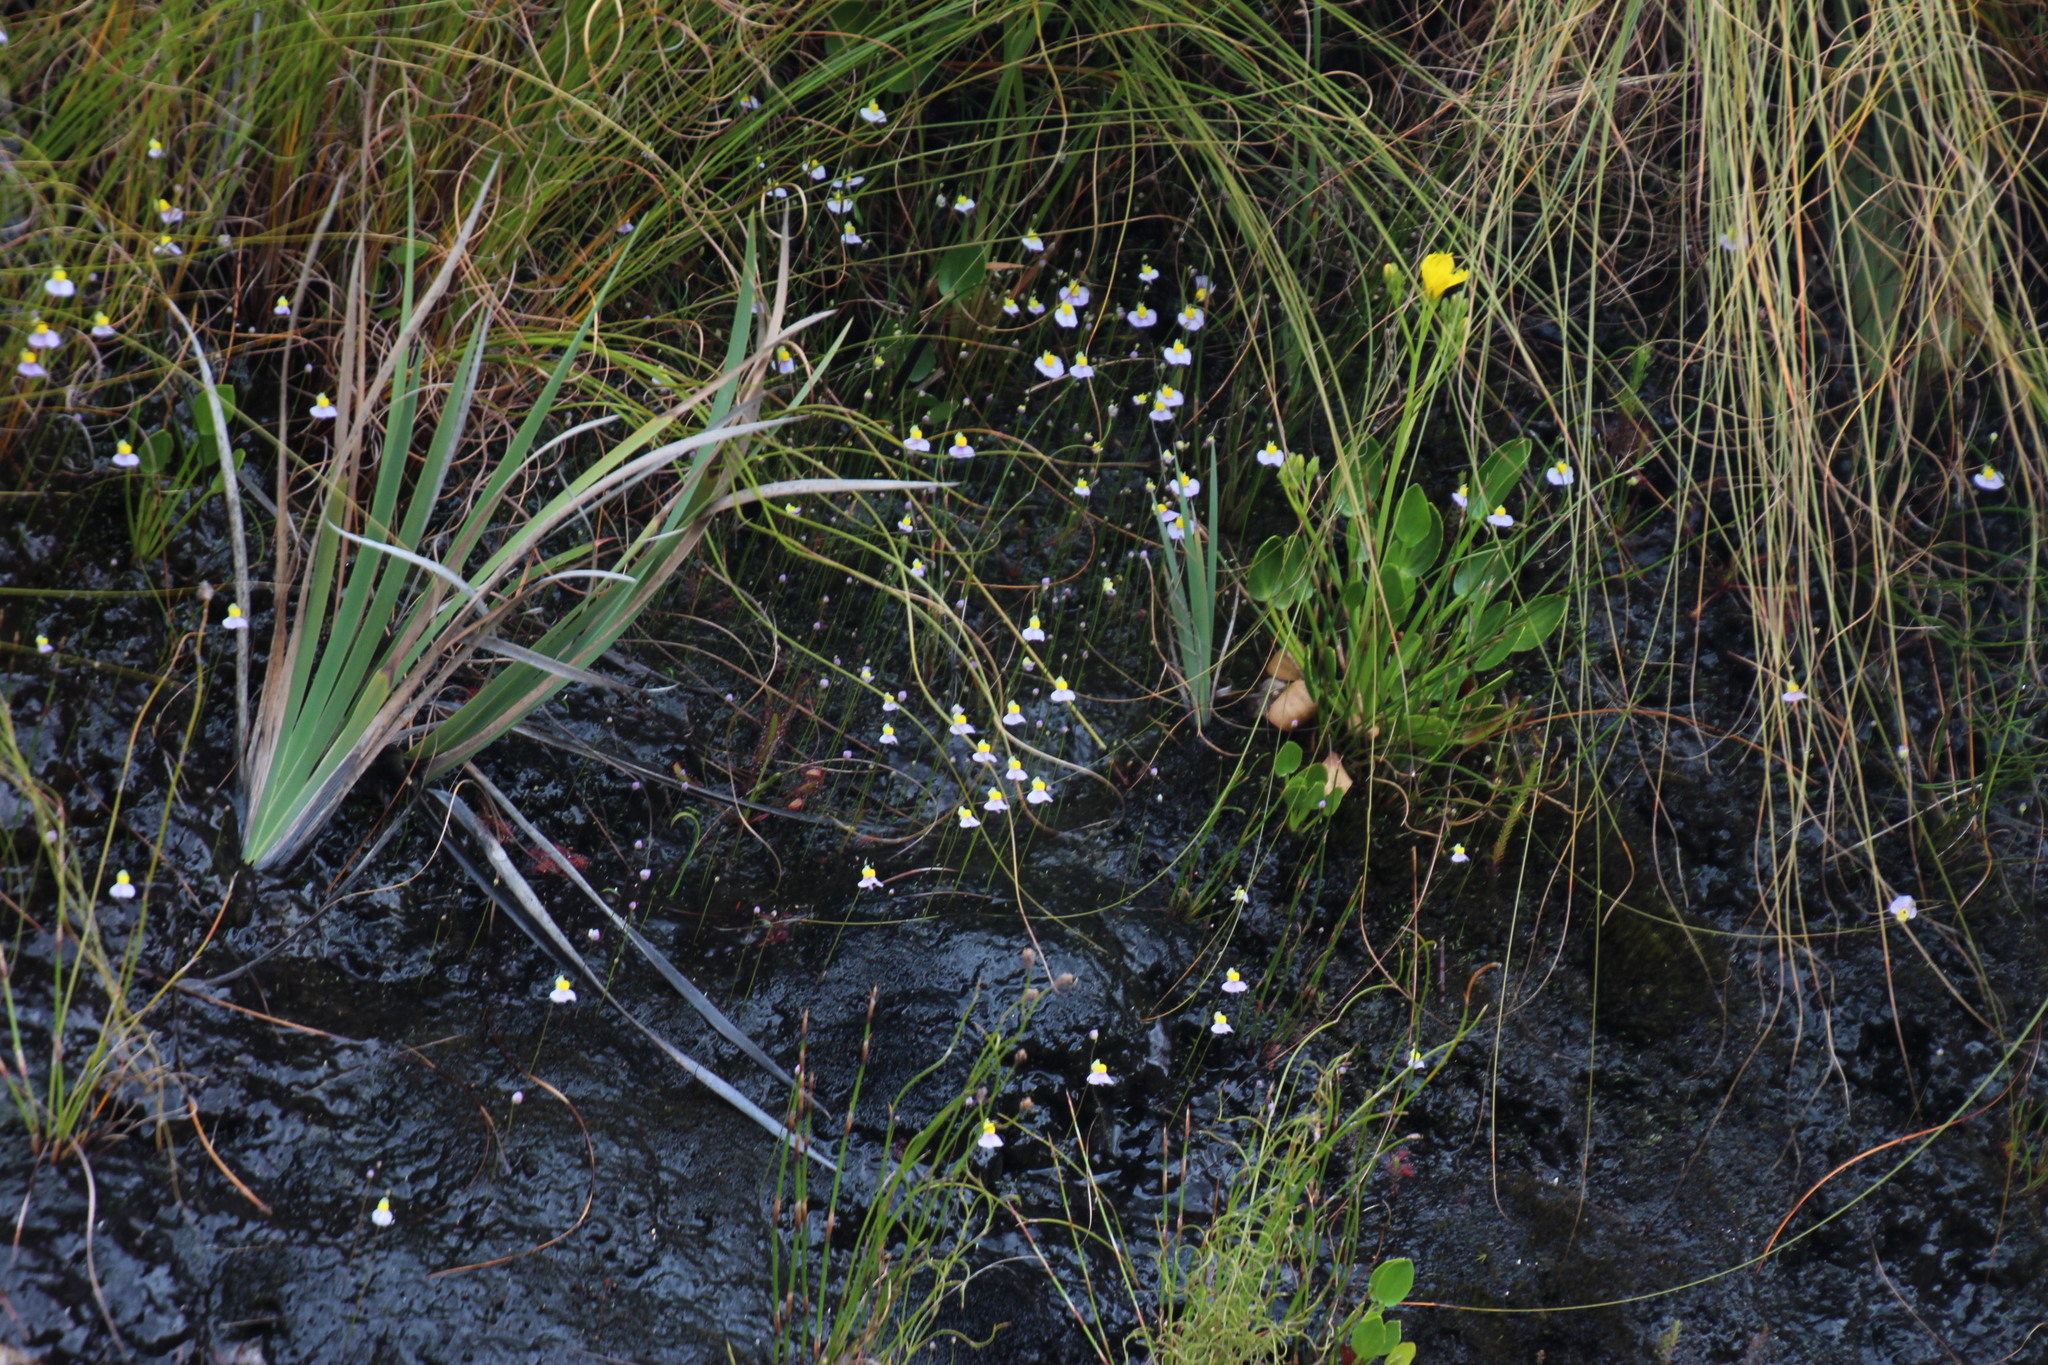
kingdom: Plantae
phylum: Tracheophyta
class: Magnoliopsida
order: Lamiales
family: Lentibulariaceae
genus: Utricularia
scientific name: Utricularia bisquamata
